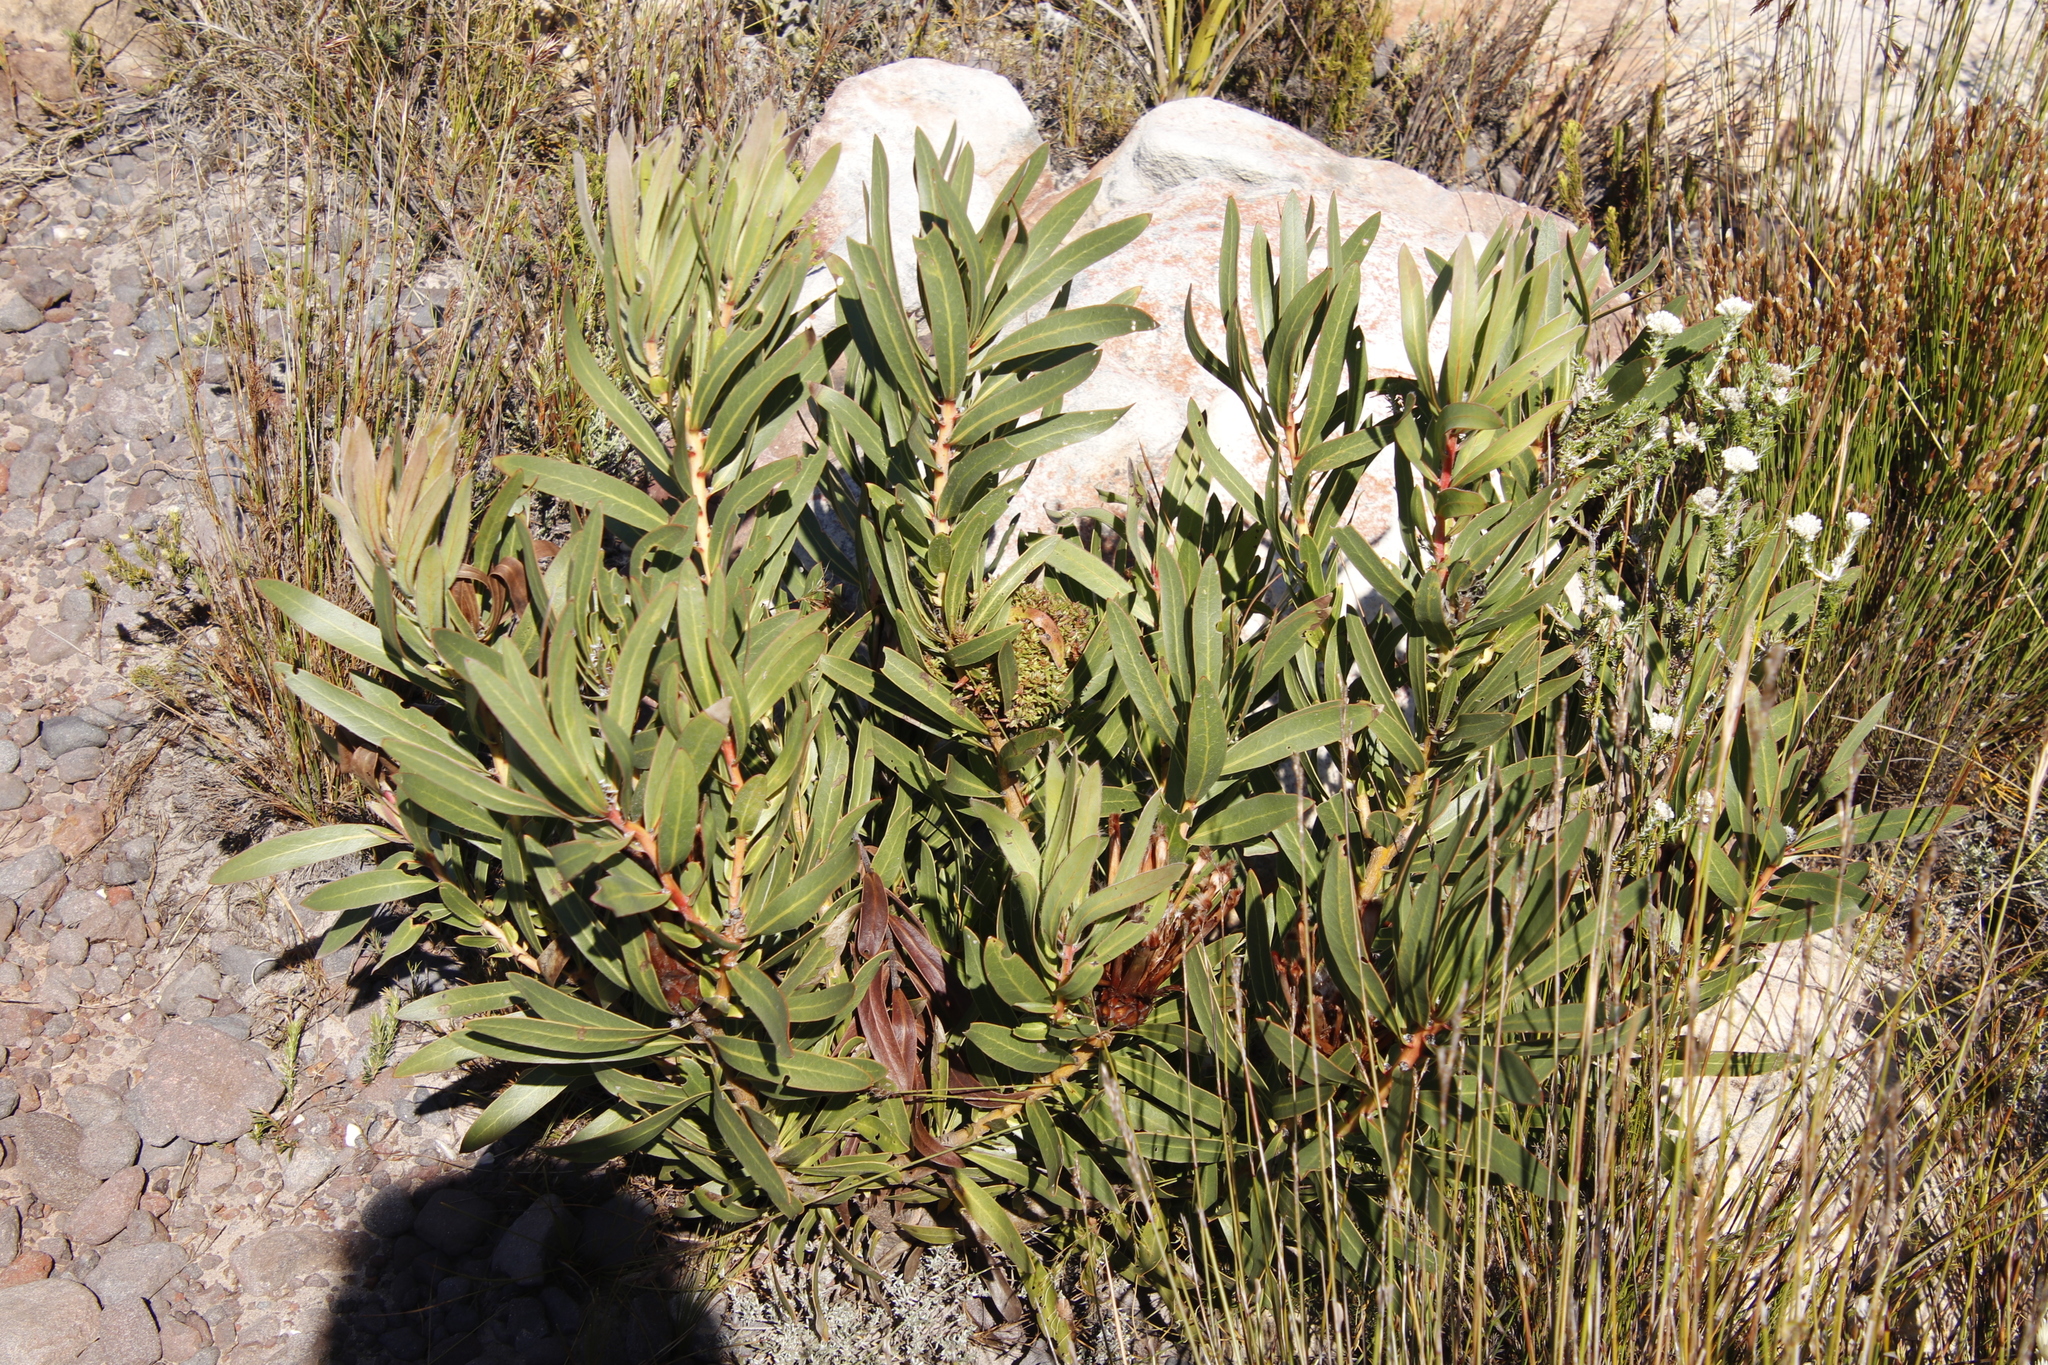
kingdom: Plantae
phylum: Tracheophyta
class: Magnoliopsida
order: Proteales
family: Proteaceae
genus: Protea
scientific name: Protea lepidocarpodendron
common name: Black-bearded protea
